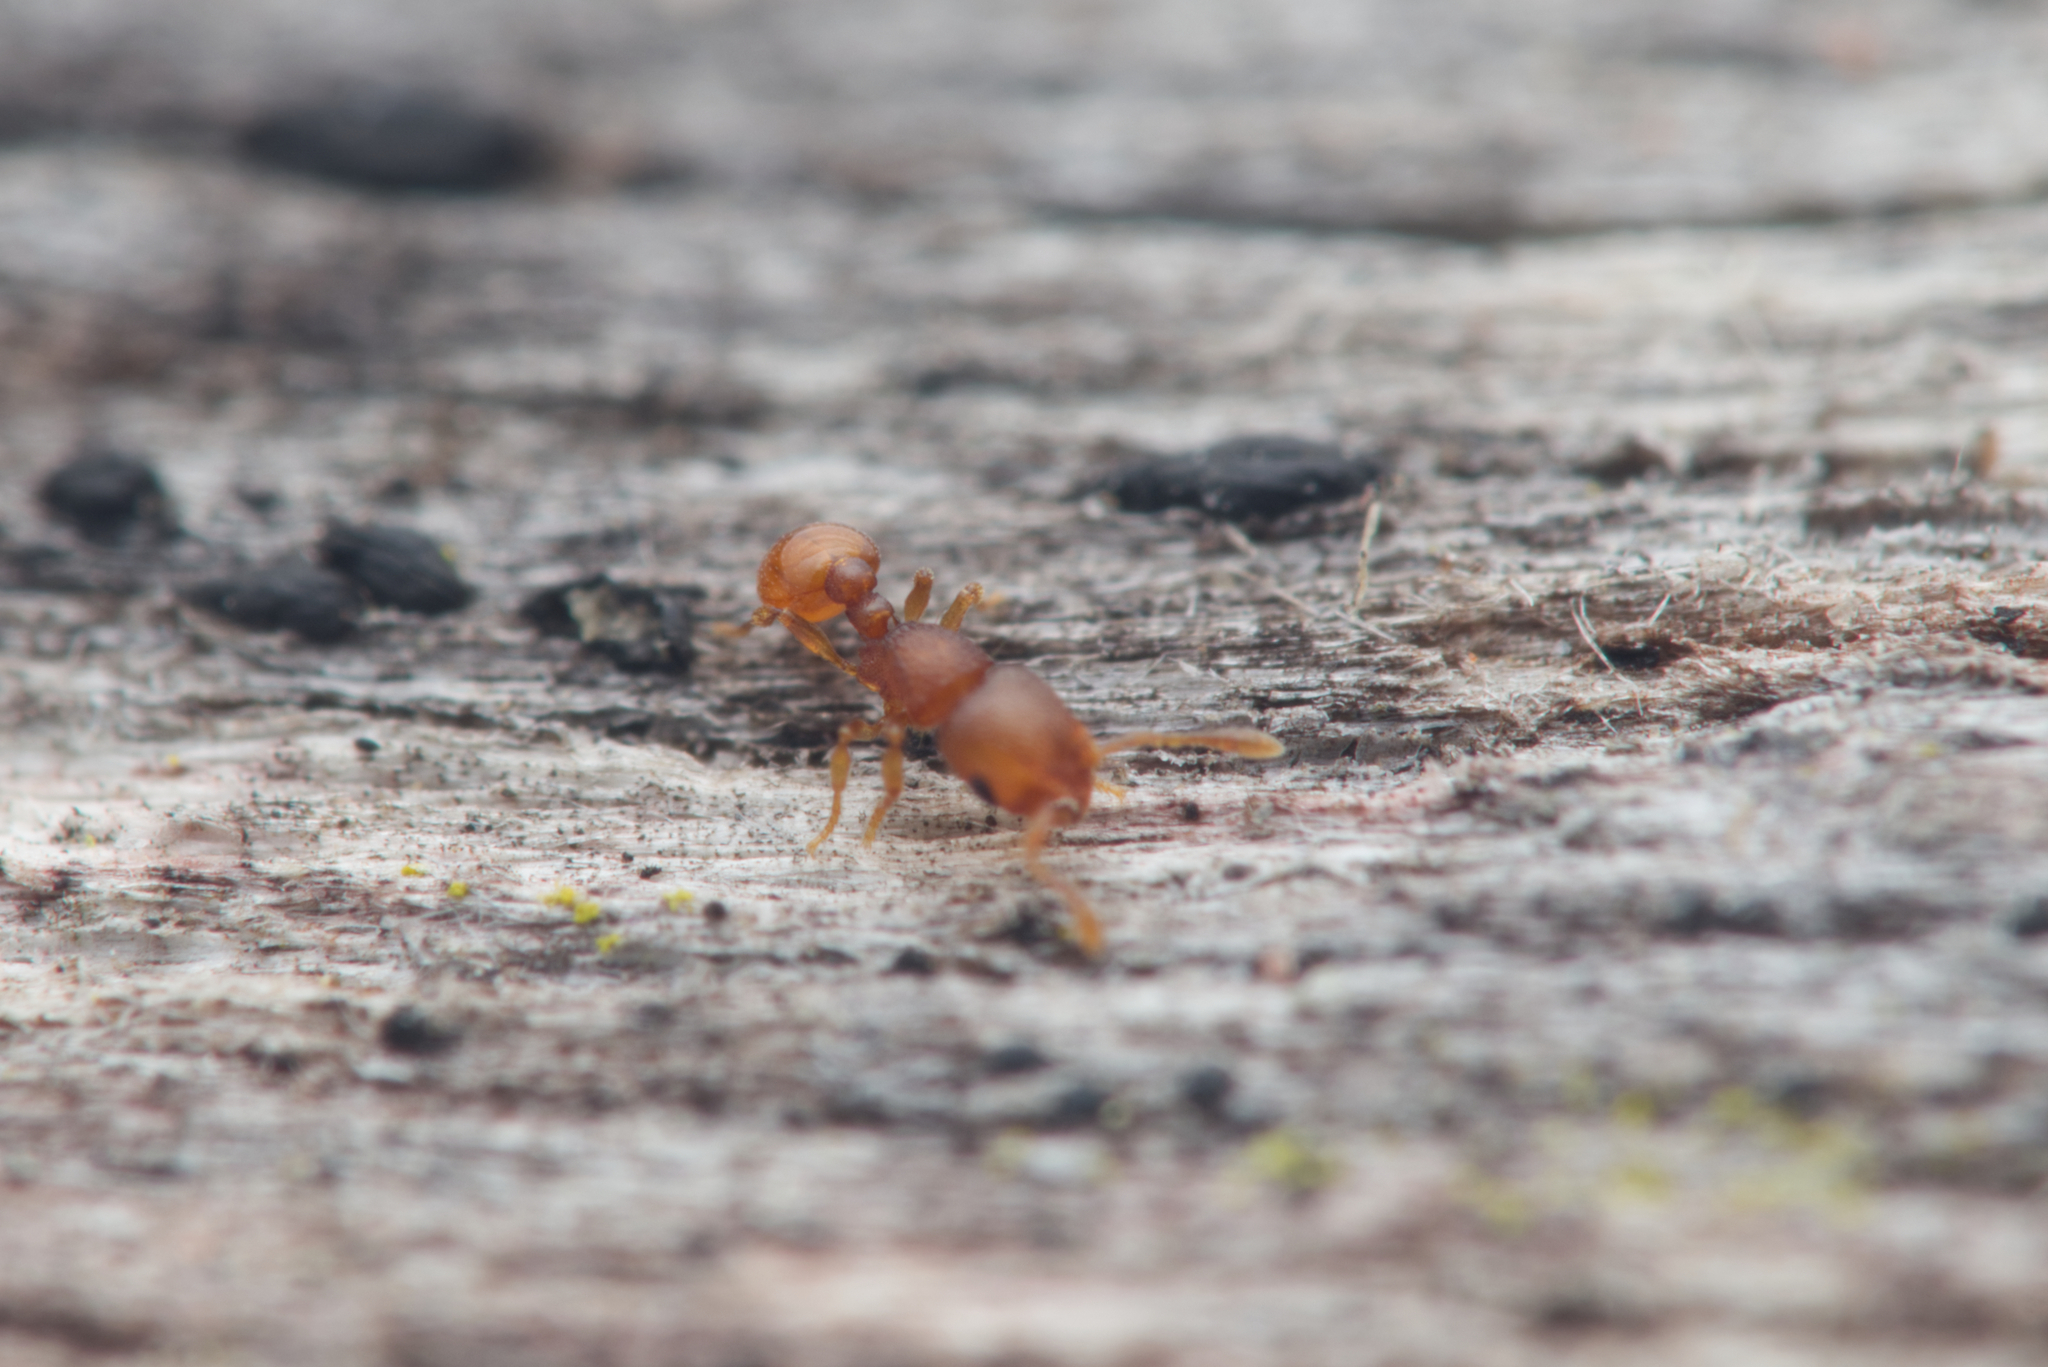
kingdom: Animalia
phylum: Arthropoda
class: Insecta
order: Hymenoptera
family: Formicidae
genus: Mayriella
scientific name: Mayriella abstinens
